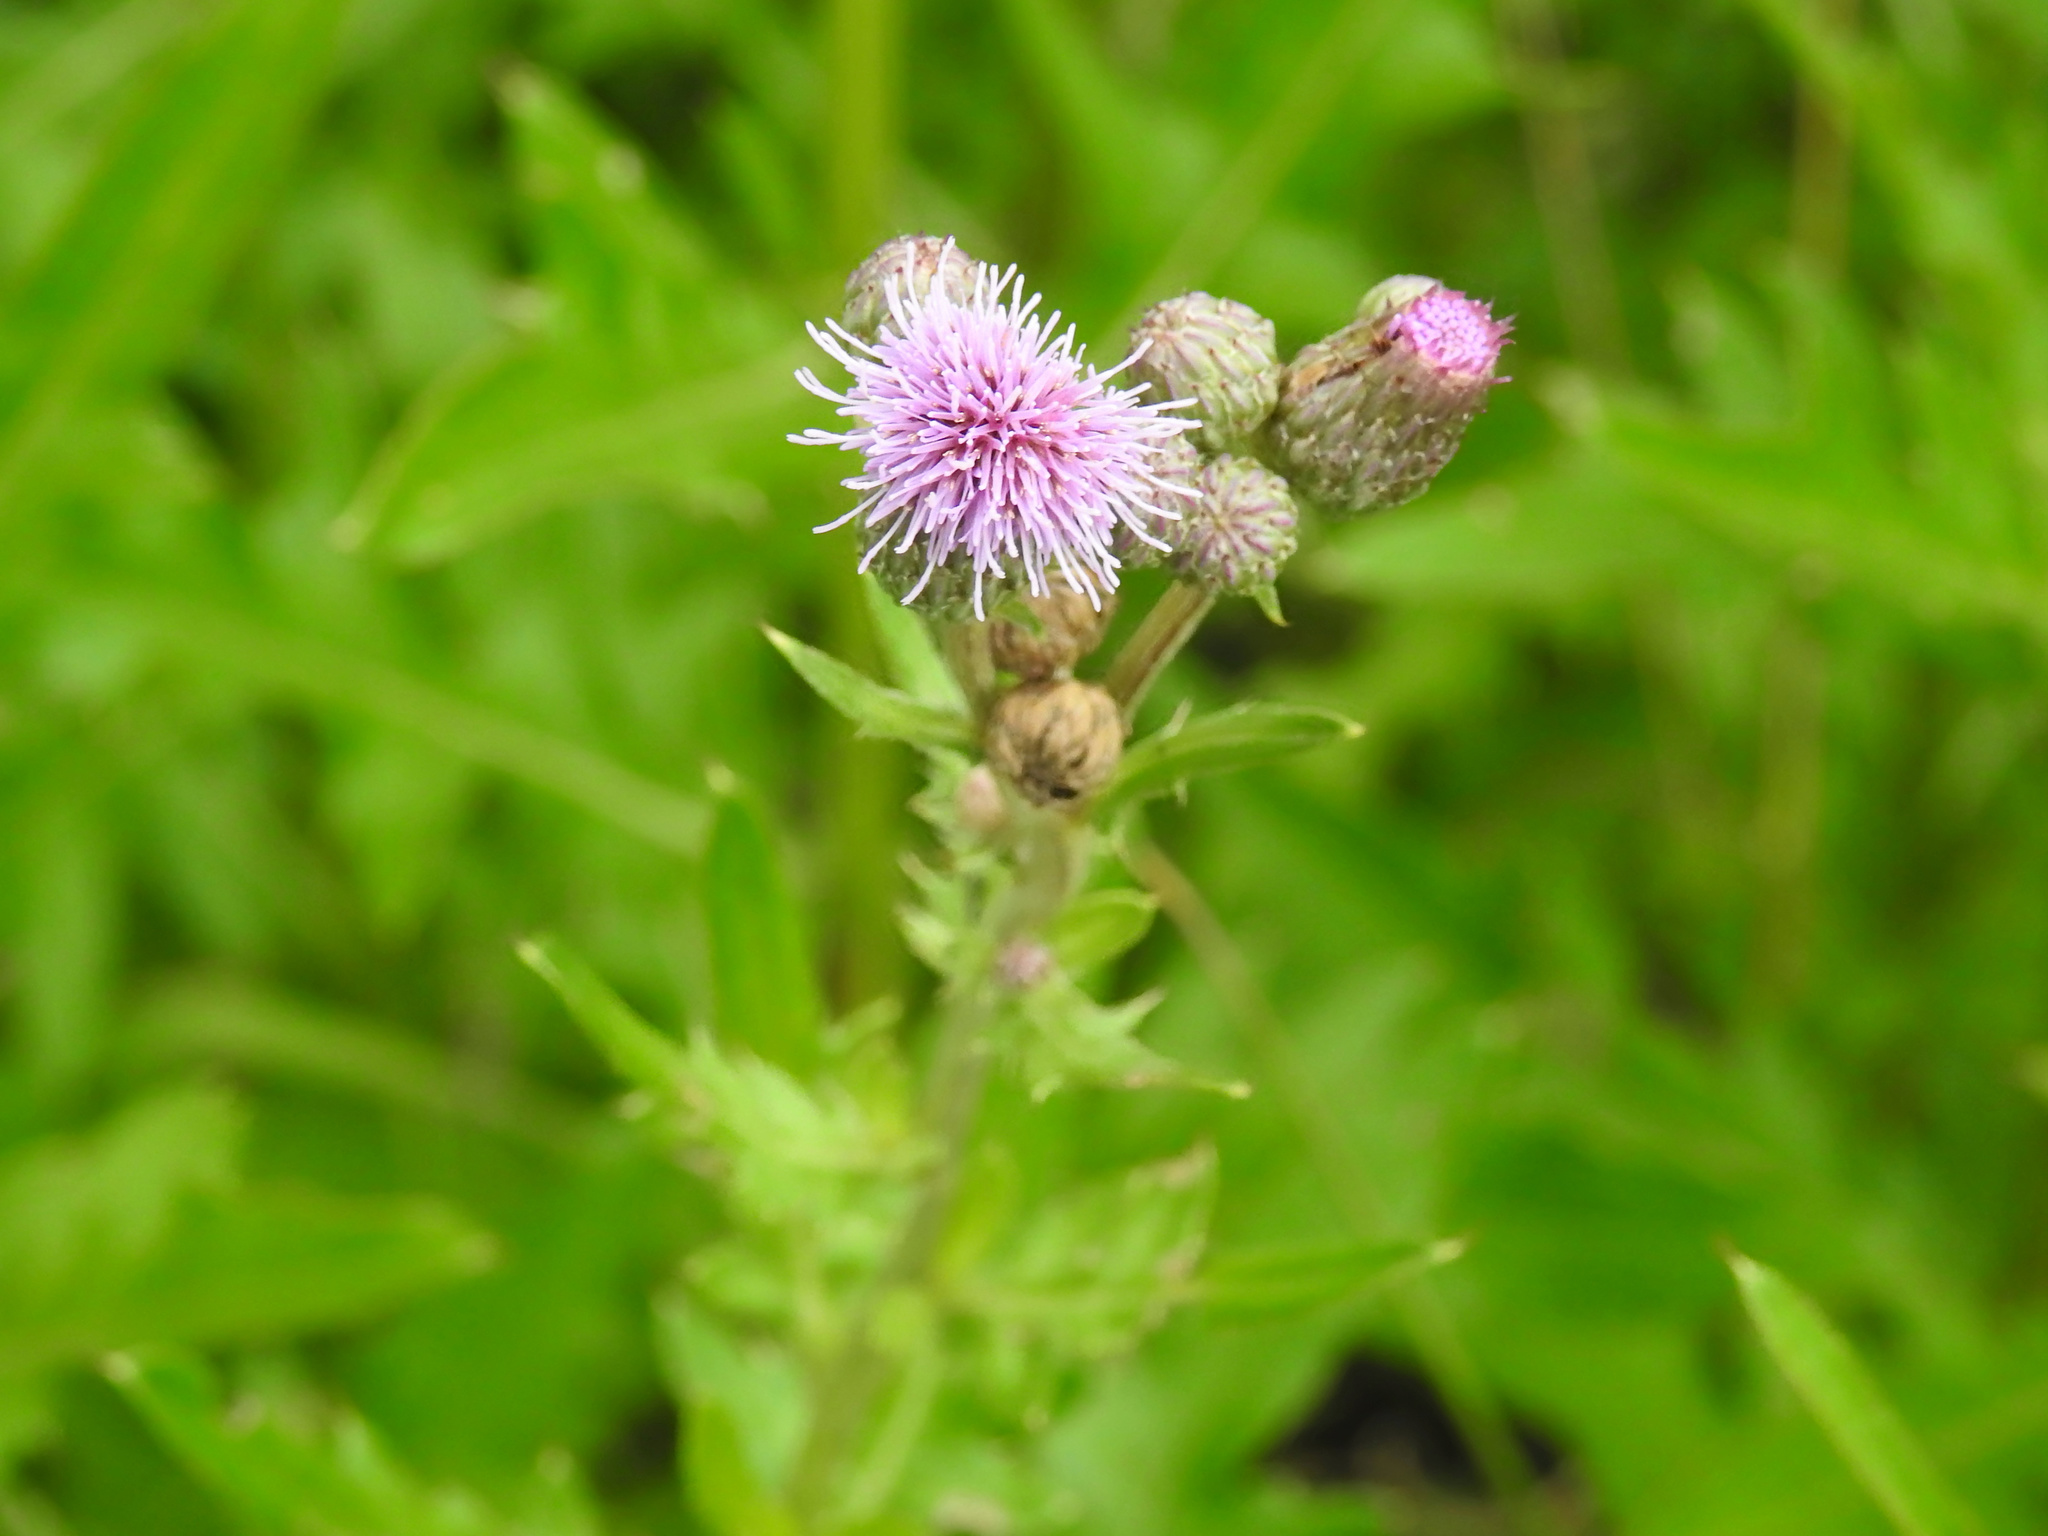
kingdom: Plantae
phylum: Tracheophyta
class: Magnoliopsida
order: Asterales
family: Asteraceae
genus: Cirsium
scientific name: Cirsium arvense
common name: Creeping thistle
